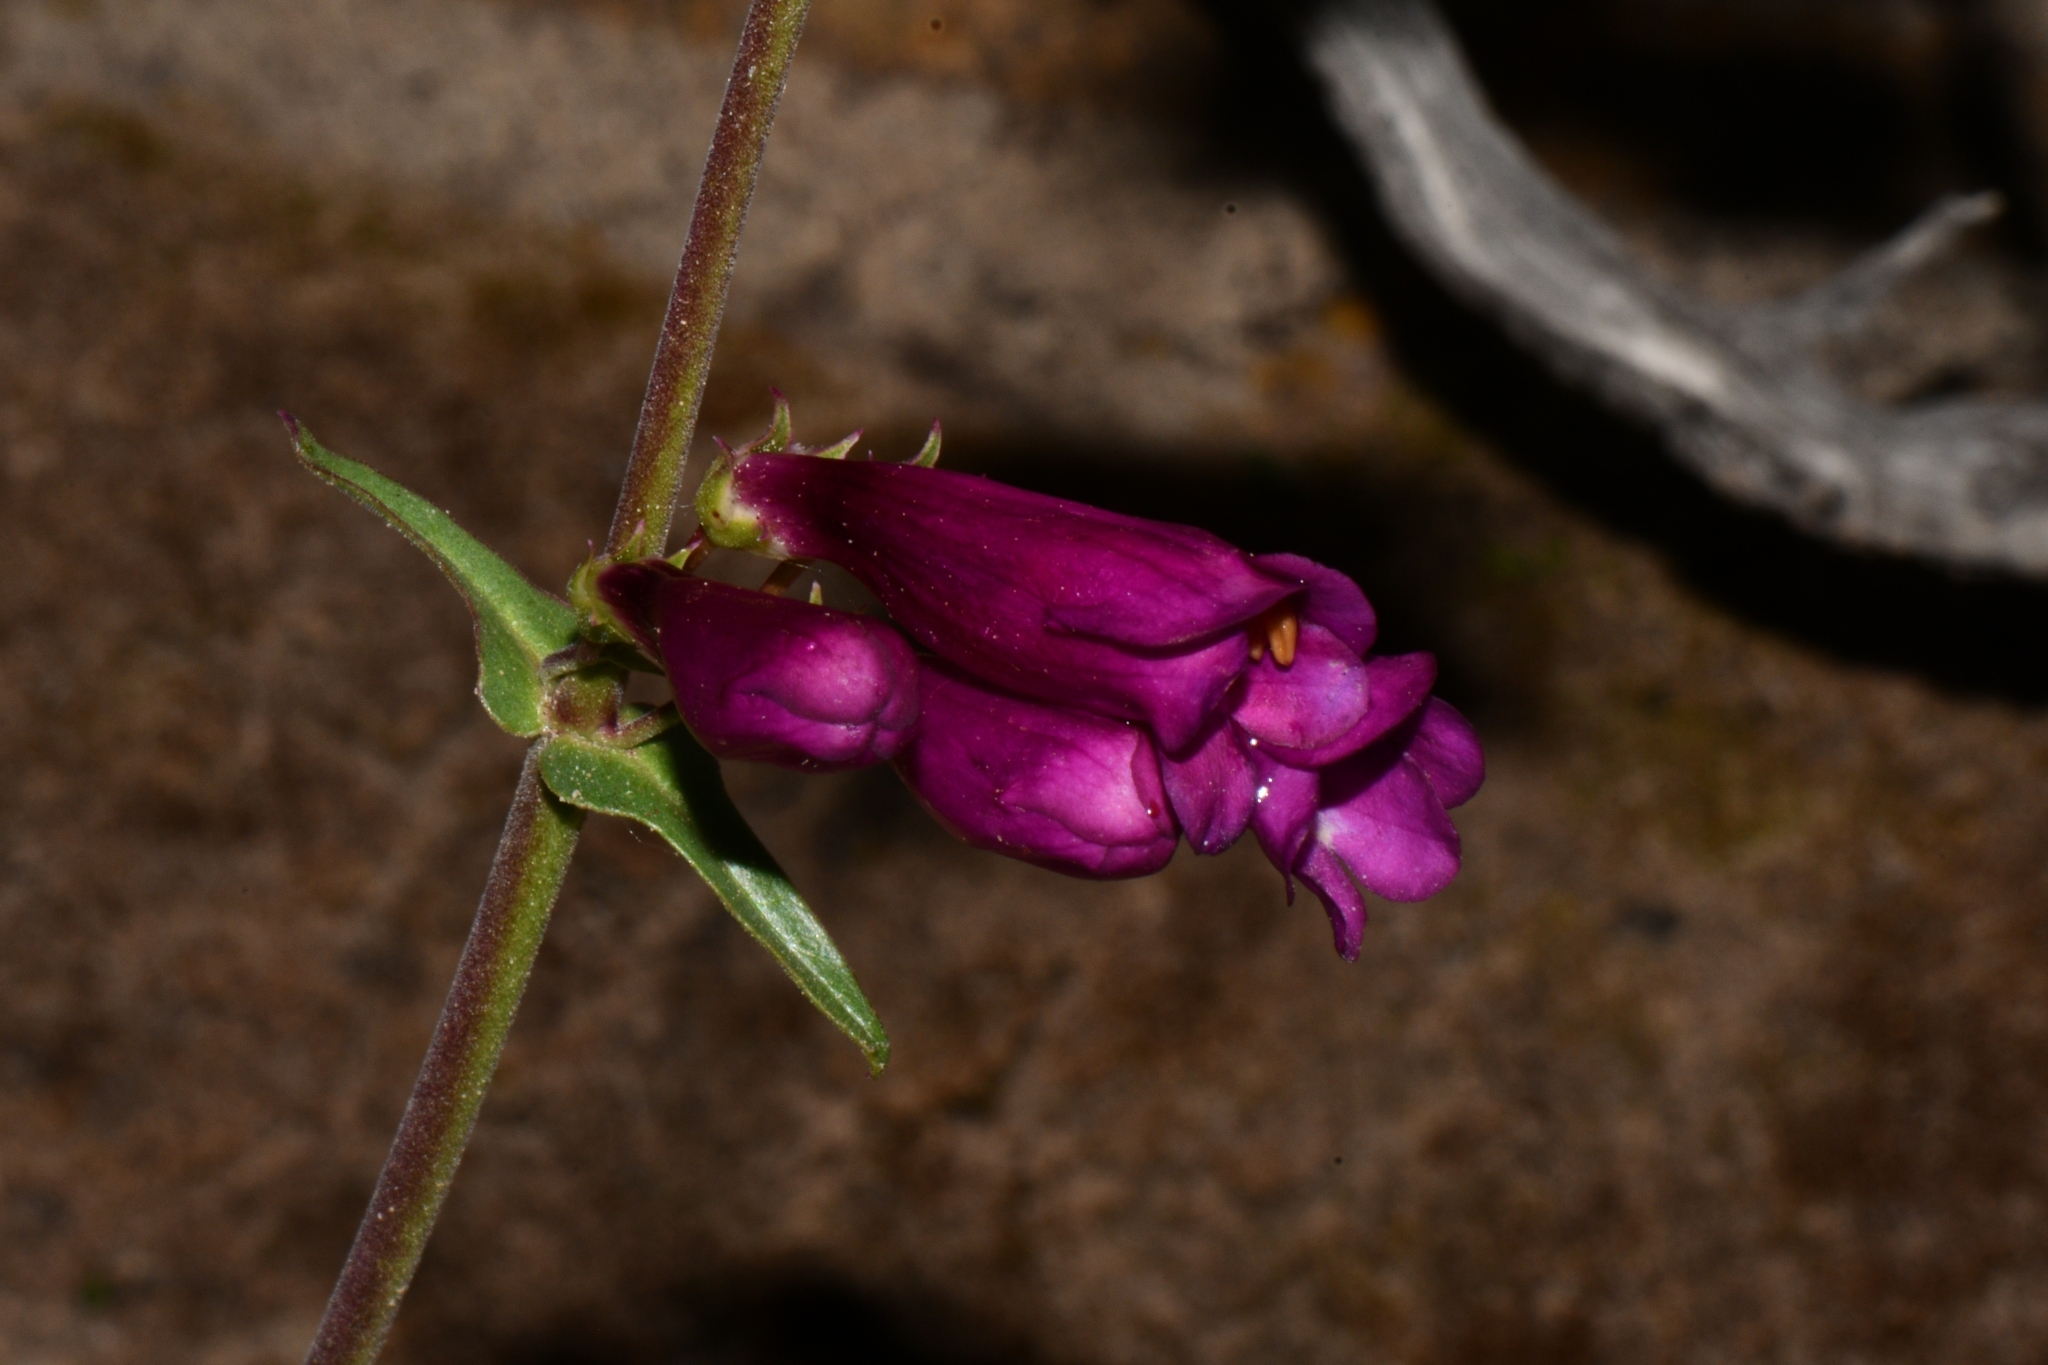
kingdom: Plantae
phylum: Tracheophyta
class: Magnoliopsida
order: Lamiales
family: Plantaginaceae
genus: Penstemon
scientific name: Penstemon jonesii
